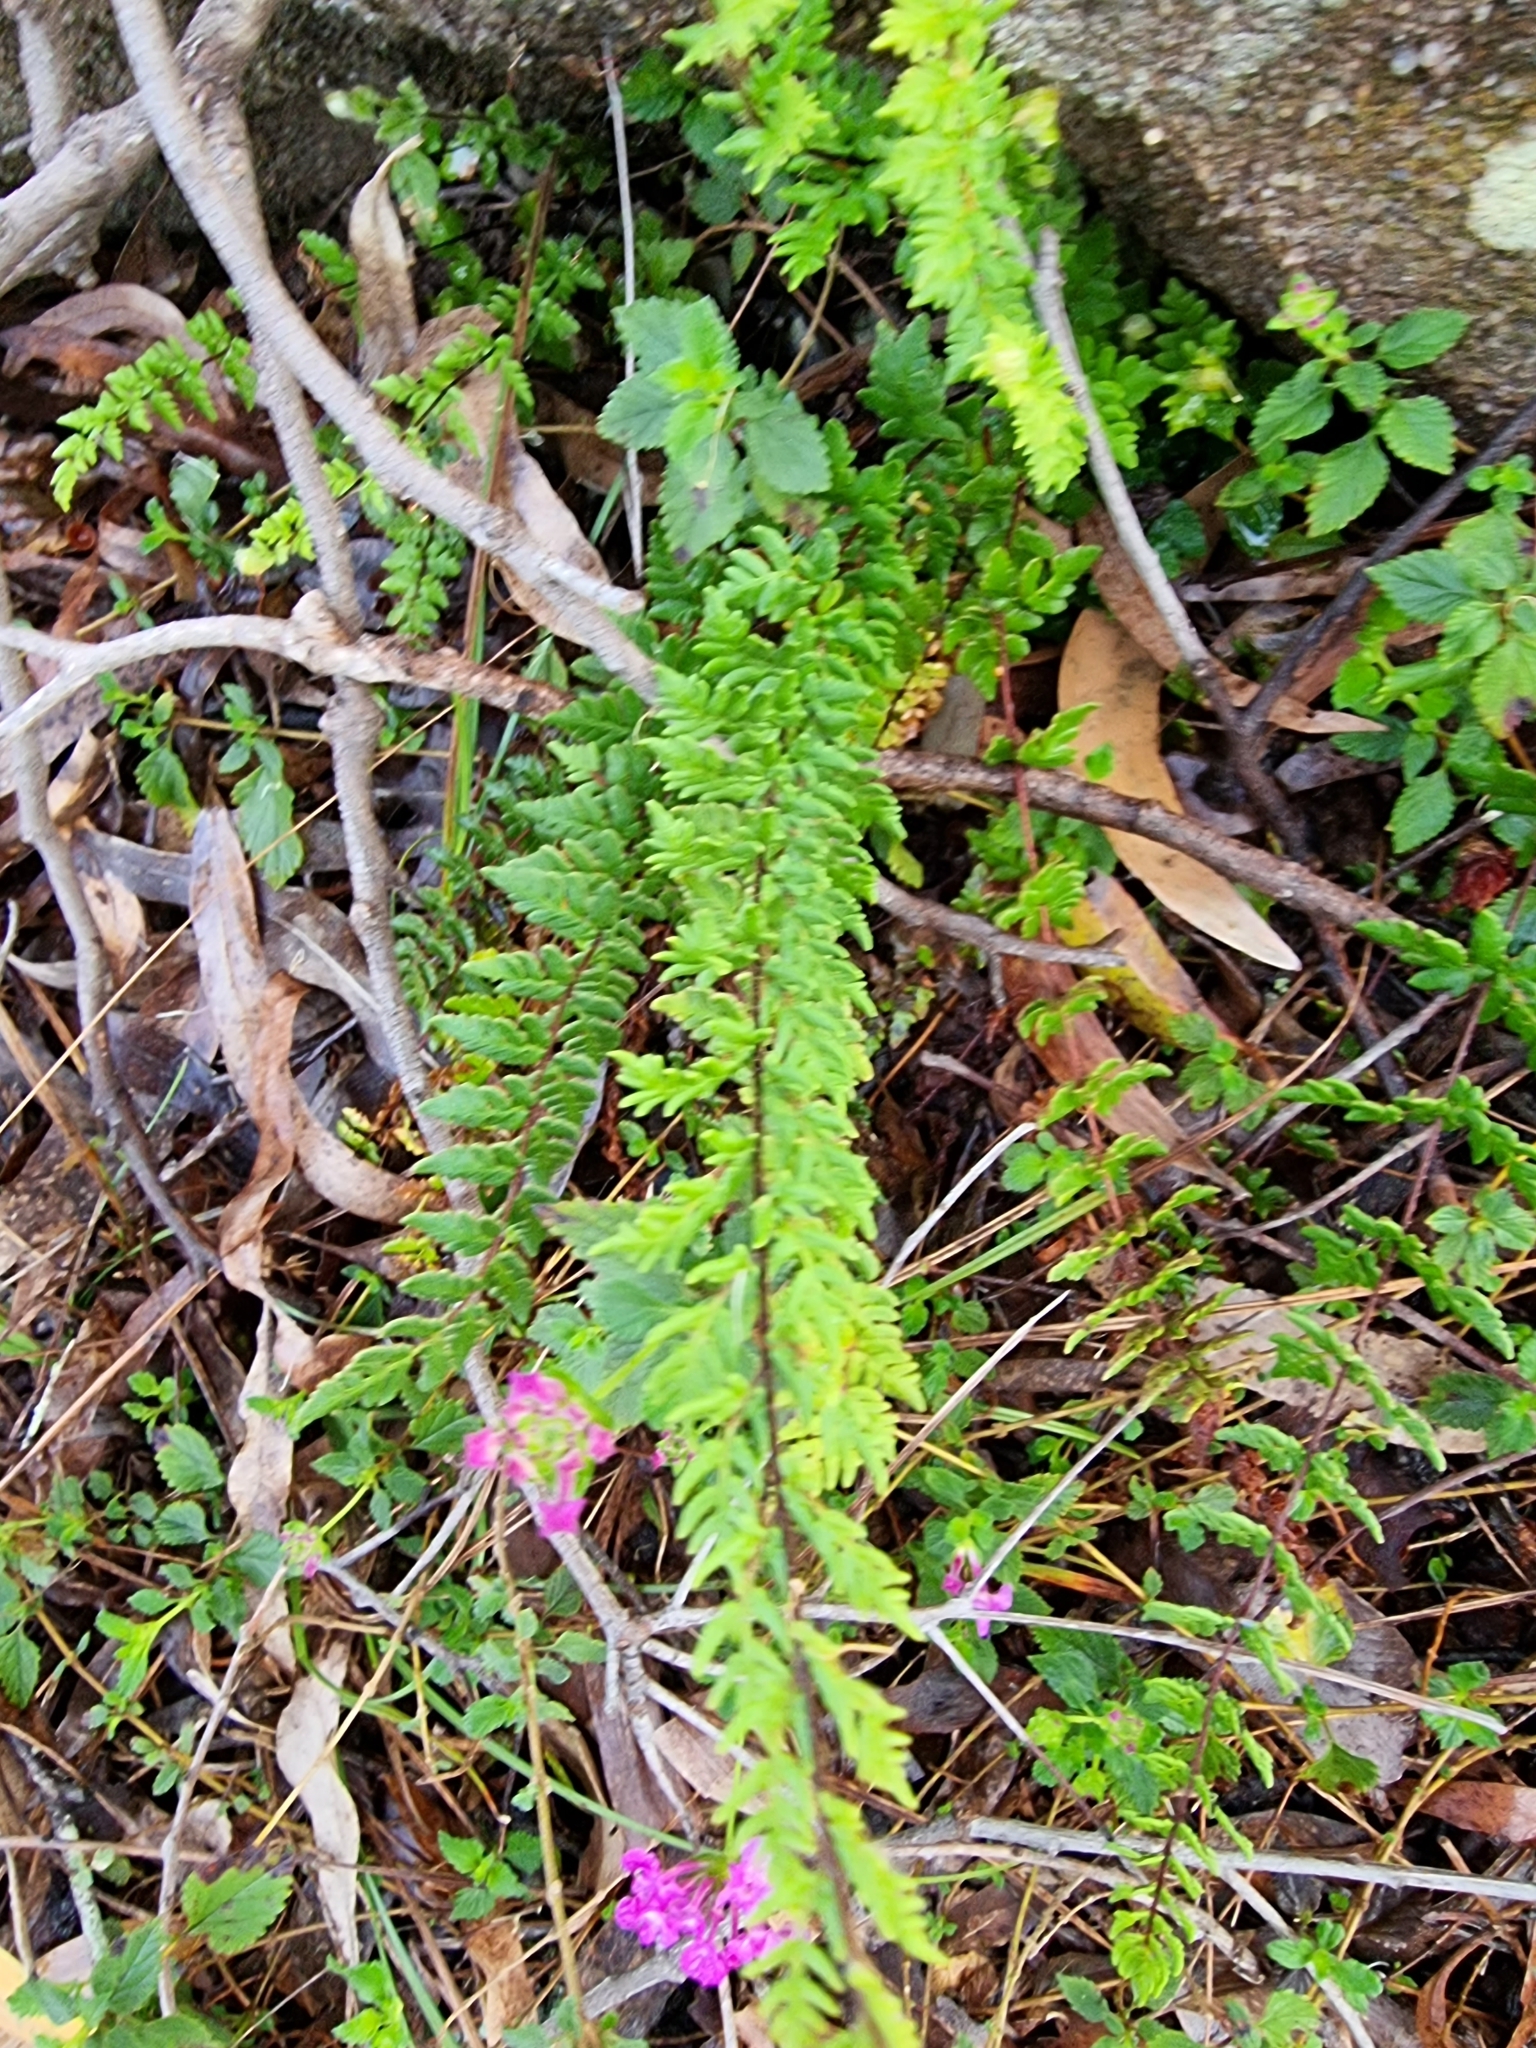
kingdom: Plantae
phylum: Tracheophyta
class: Polypodiopsida
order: Polypodiales
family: Pteridaceae
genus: Cheilanthes
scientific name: Cheilanthes sieberi
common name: Mulga fern
